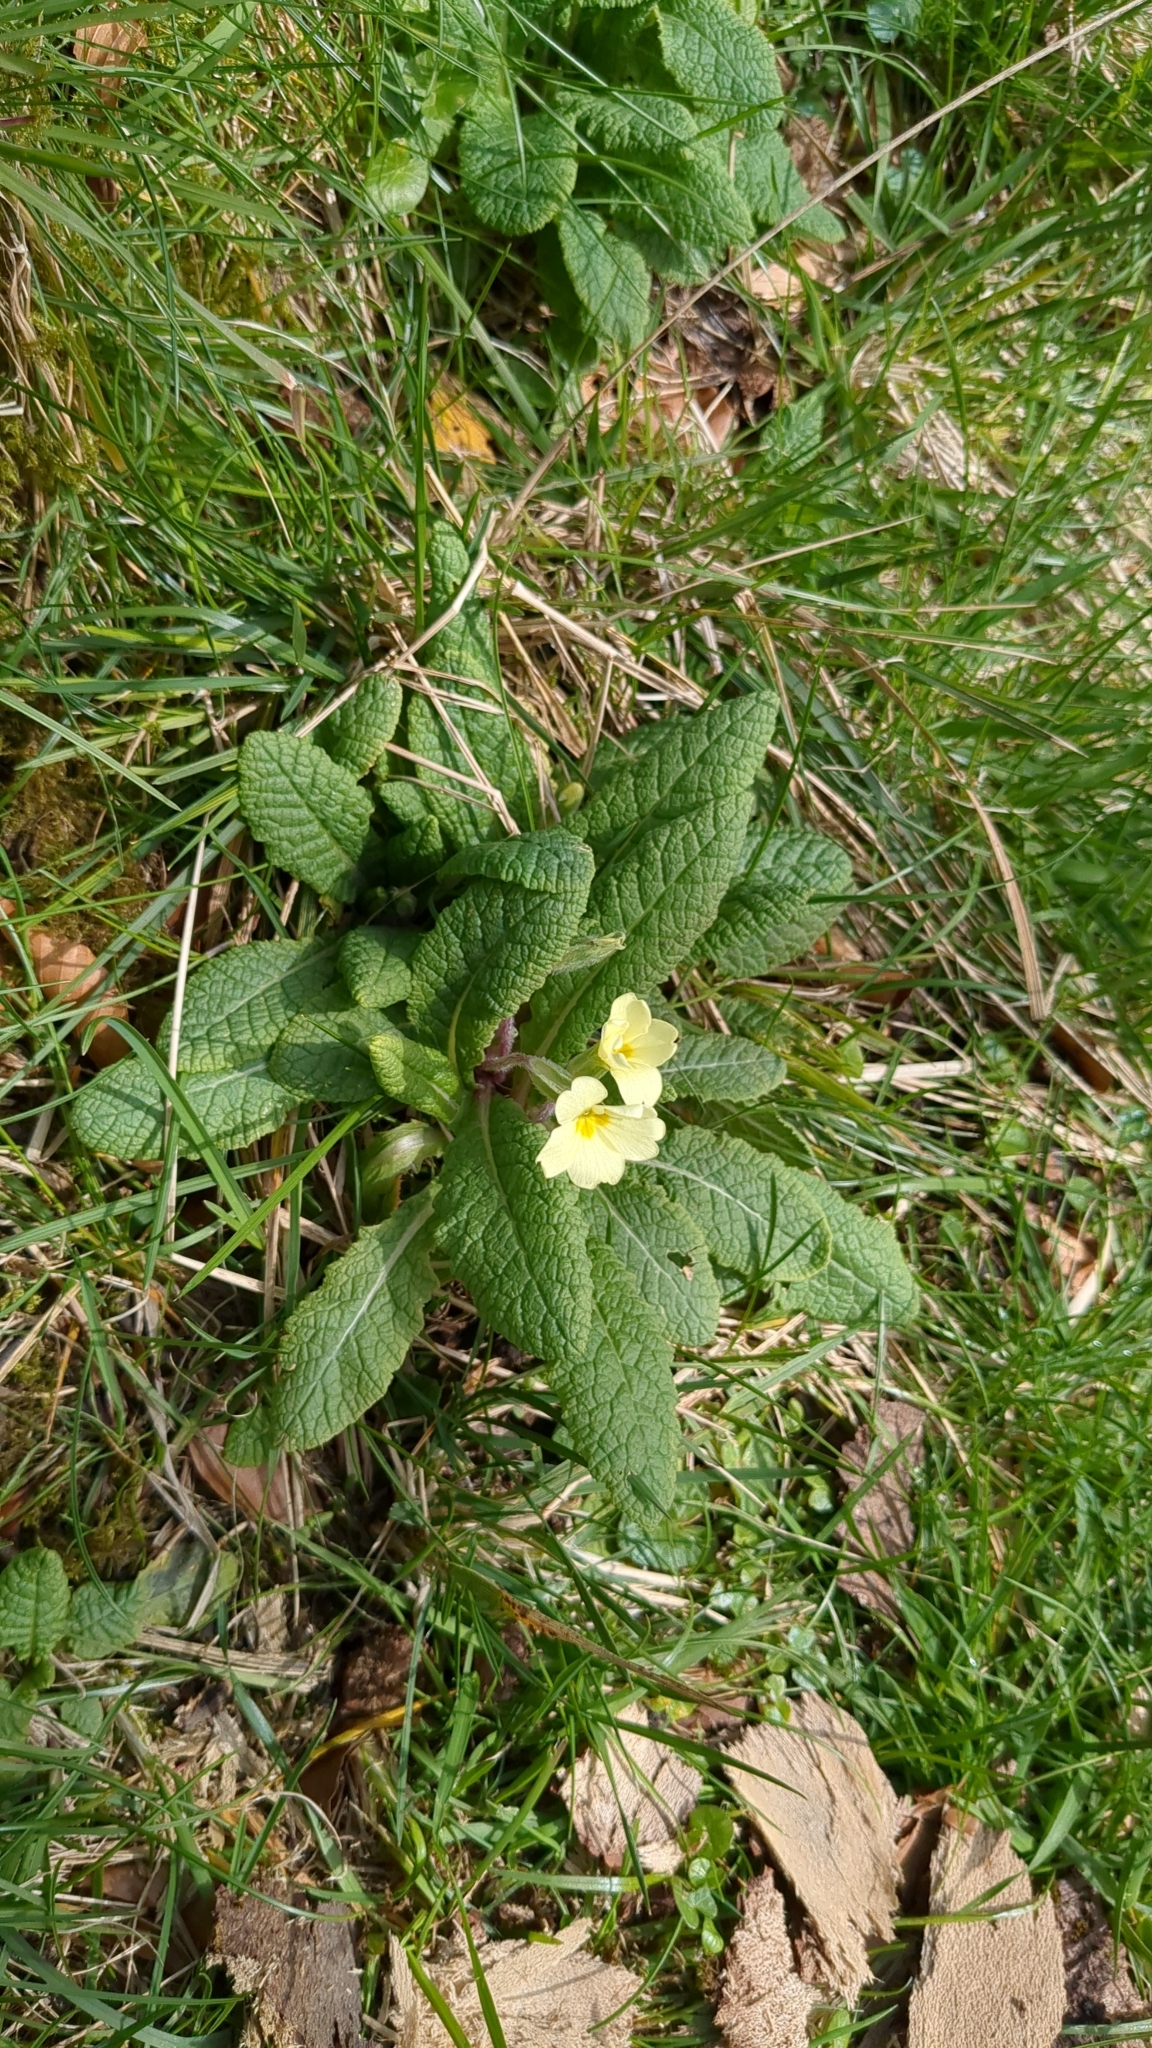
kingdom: Plantae
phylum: Tracheophyta
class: Magnoliopsida
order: Ericales
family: Primulaceae
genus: Primula
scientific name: Primula vulgaris
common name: Primrose
